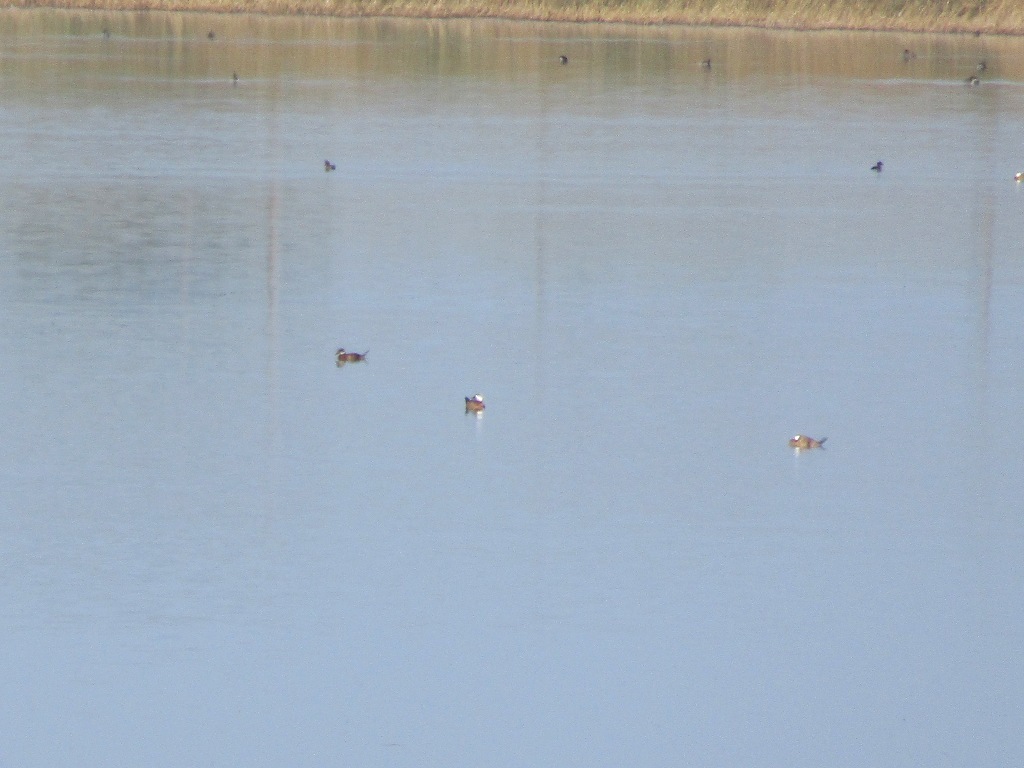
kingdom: Animalia
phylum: Chordata
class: Aves
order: Anseriformes
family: Anatidae
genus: Oxyura
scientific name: Oxyura leucocephala
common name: White-headed duck
